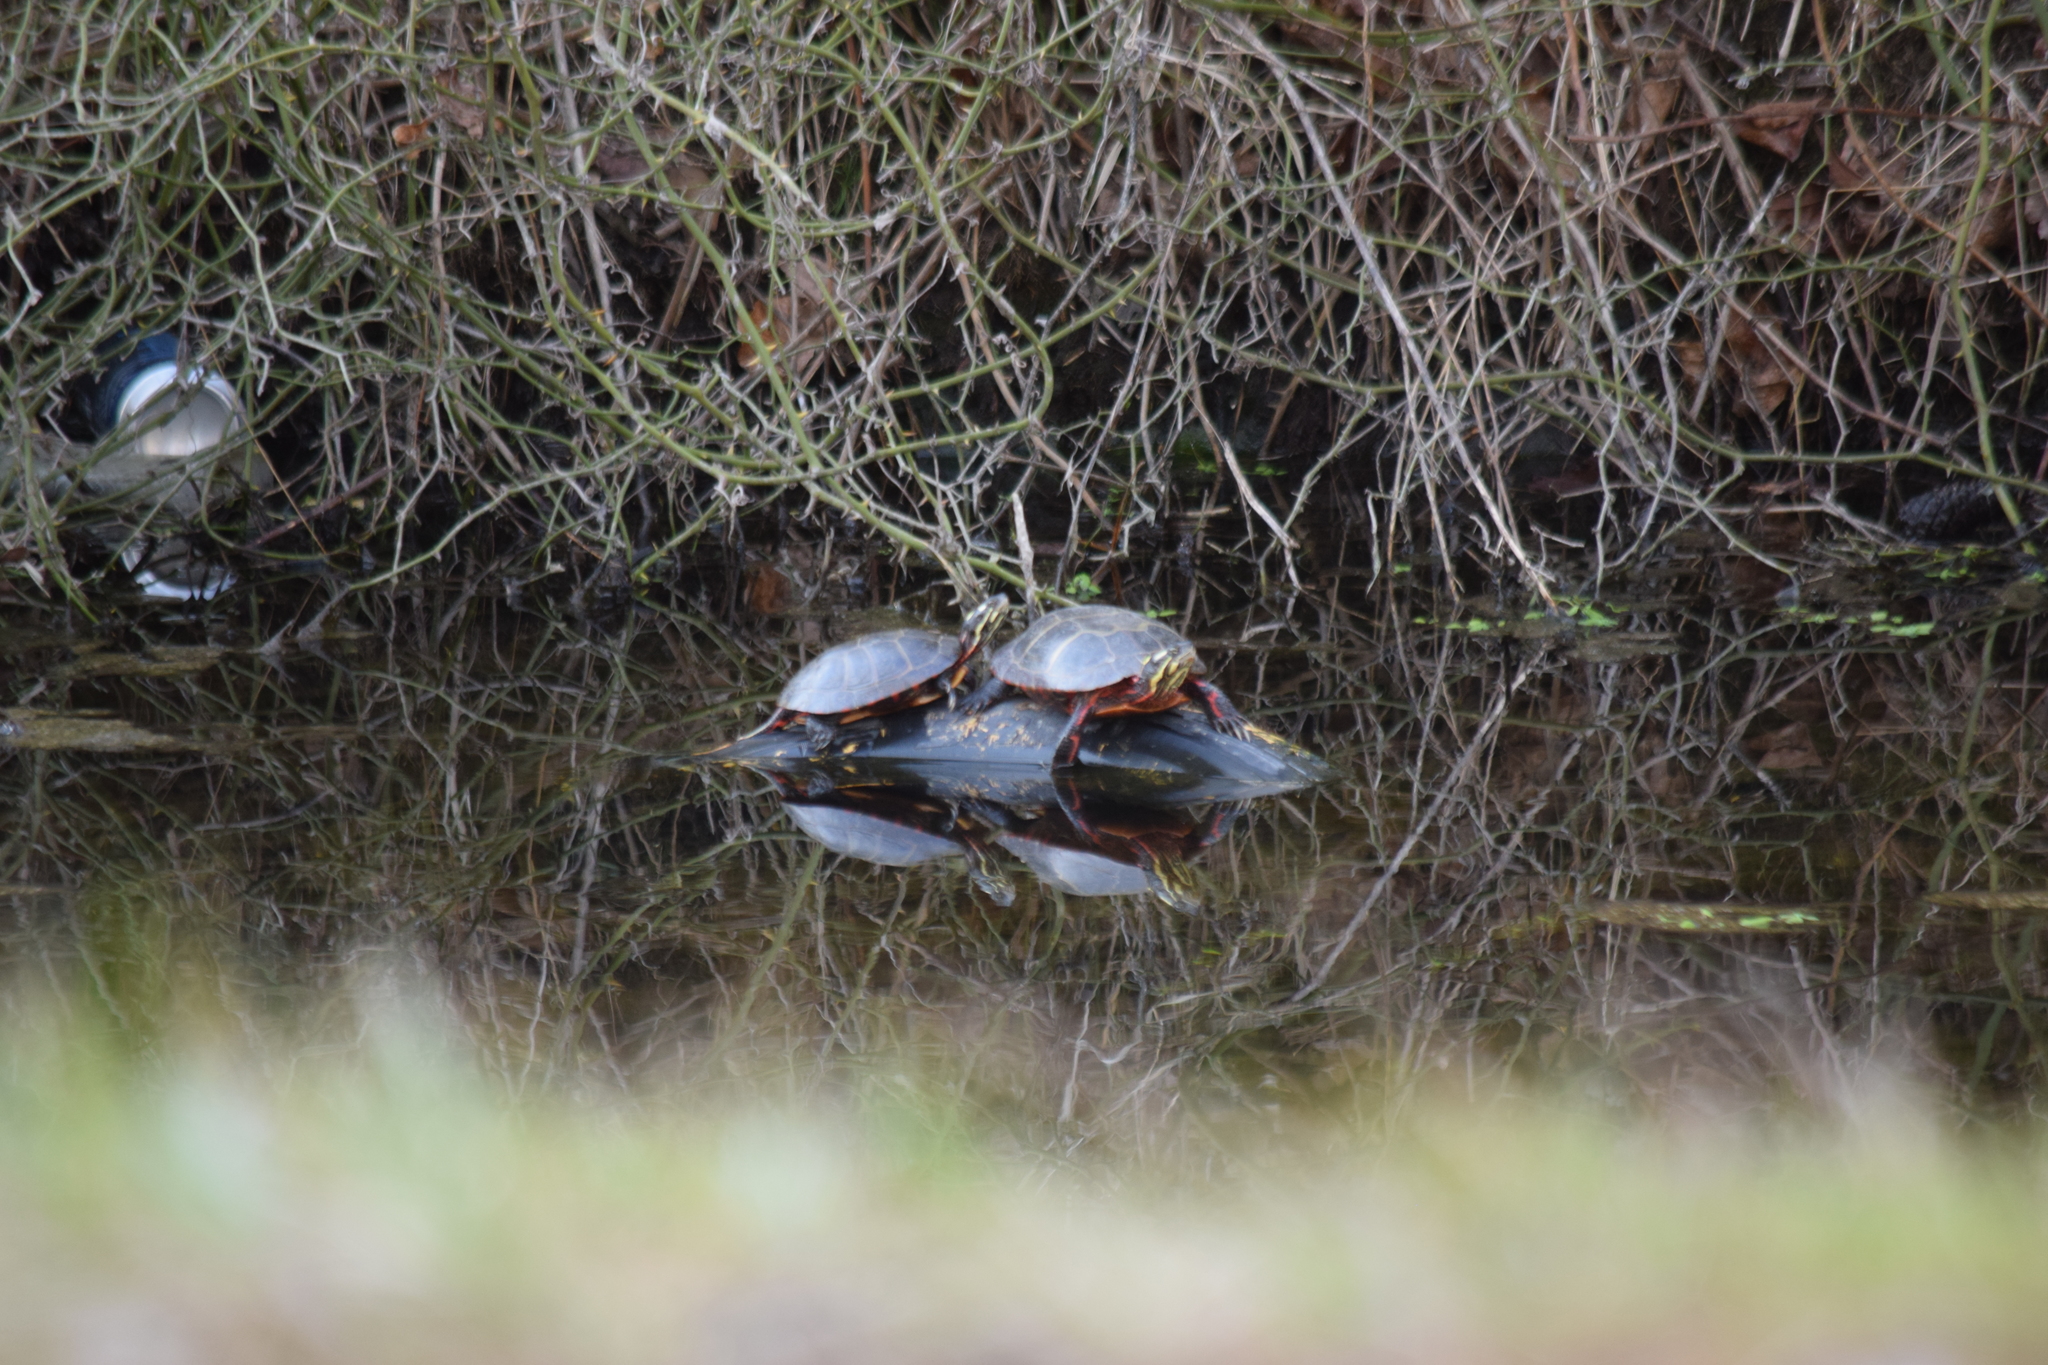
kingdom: Animalia
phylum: Chordata
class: Testudines
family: Emydidae
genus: Chrysemys
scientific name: Chrysemys picta
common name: Painted turtle
